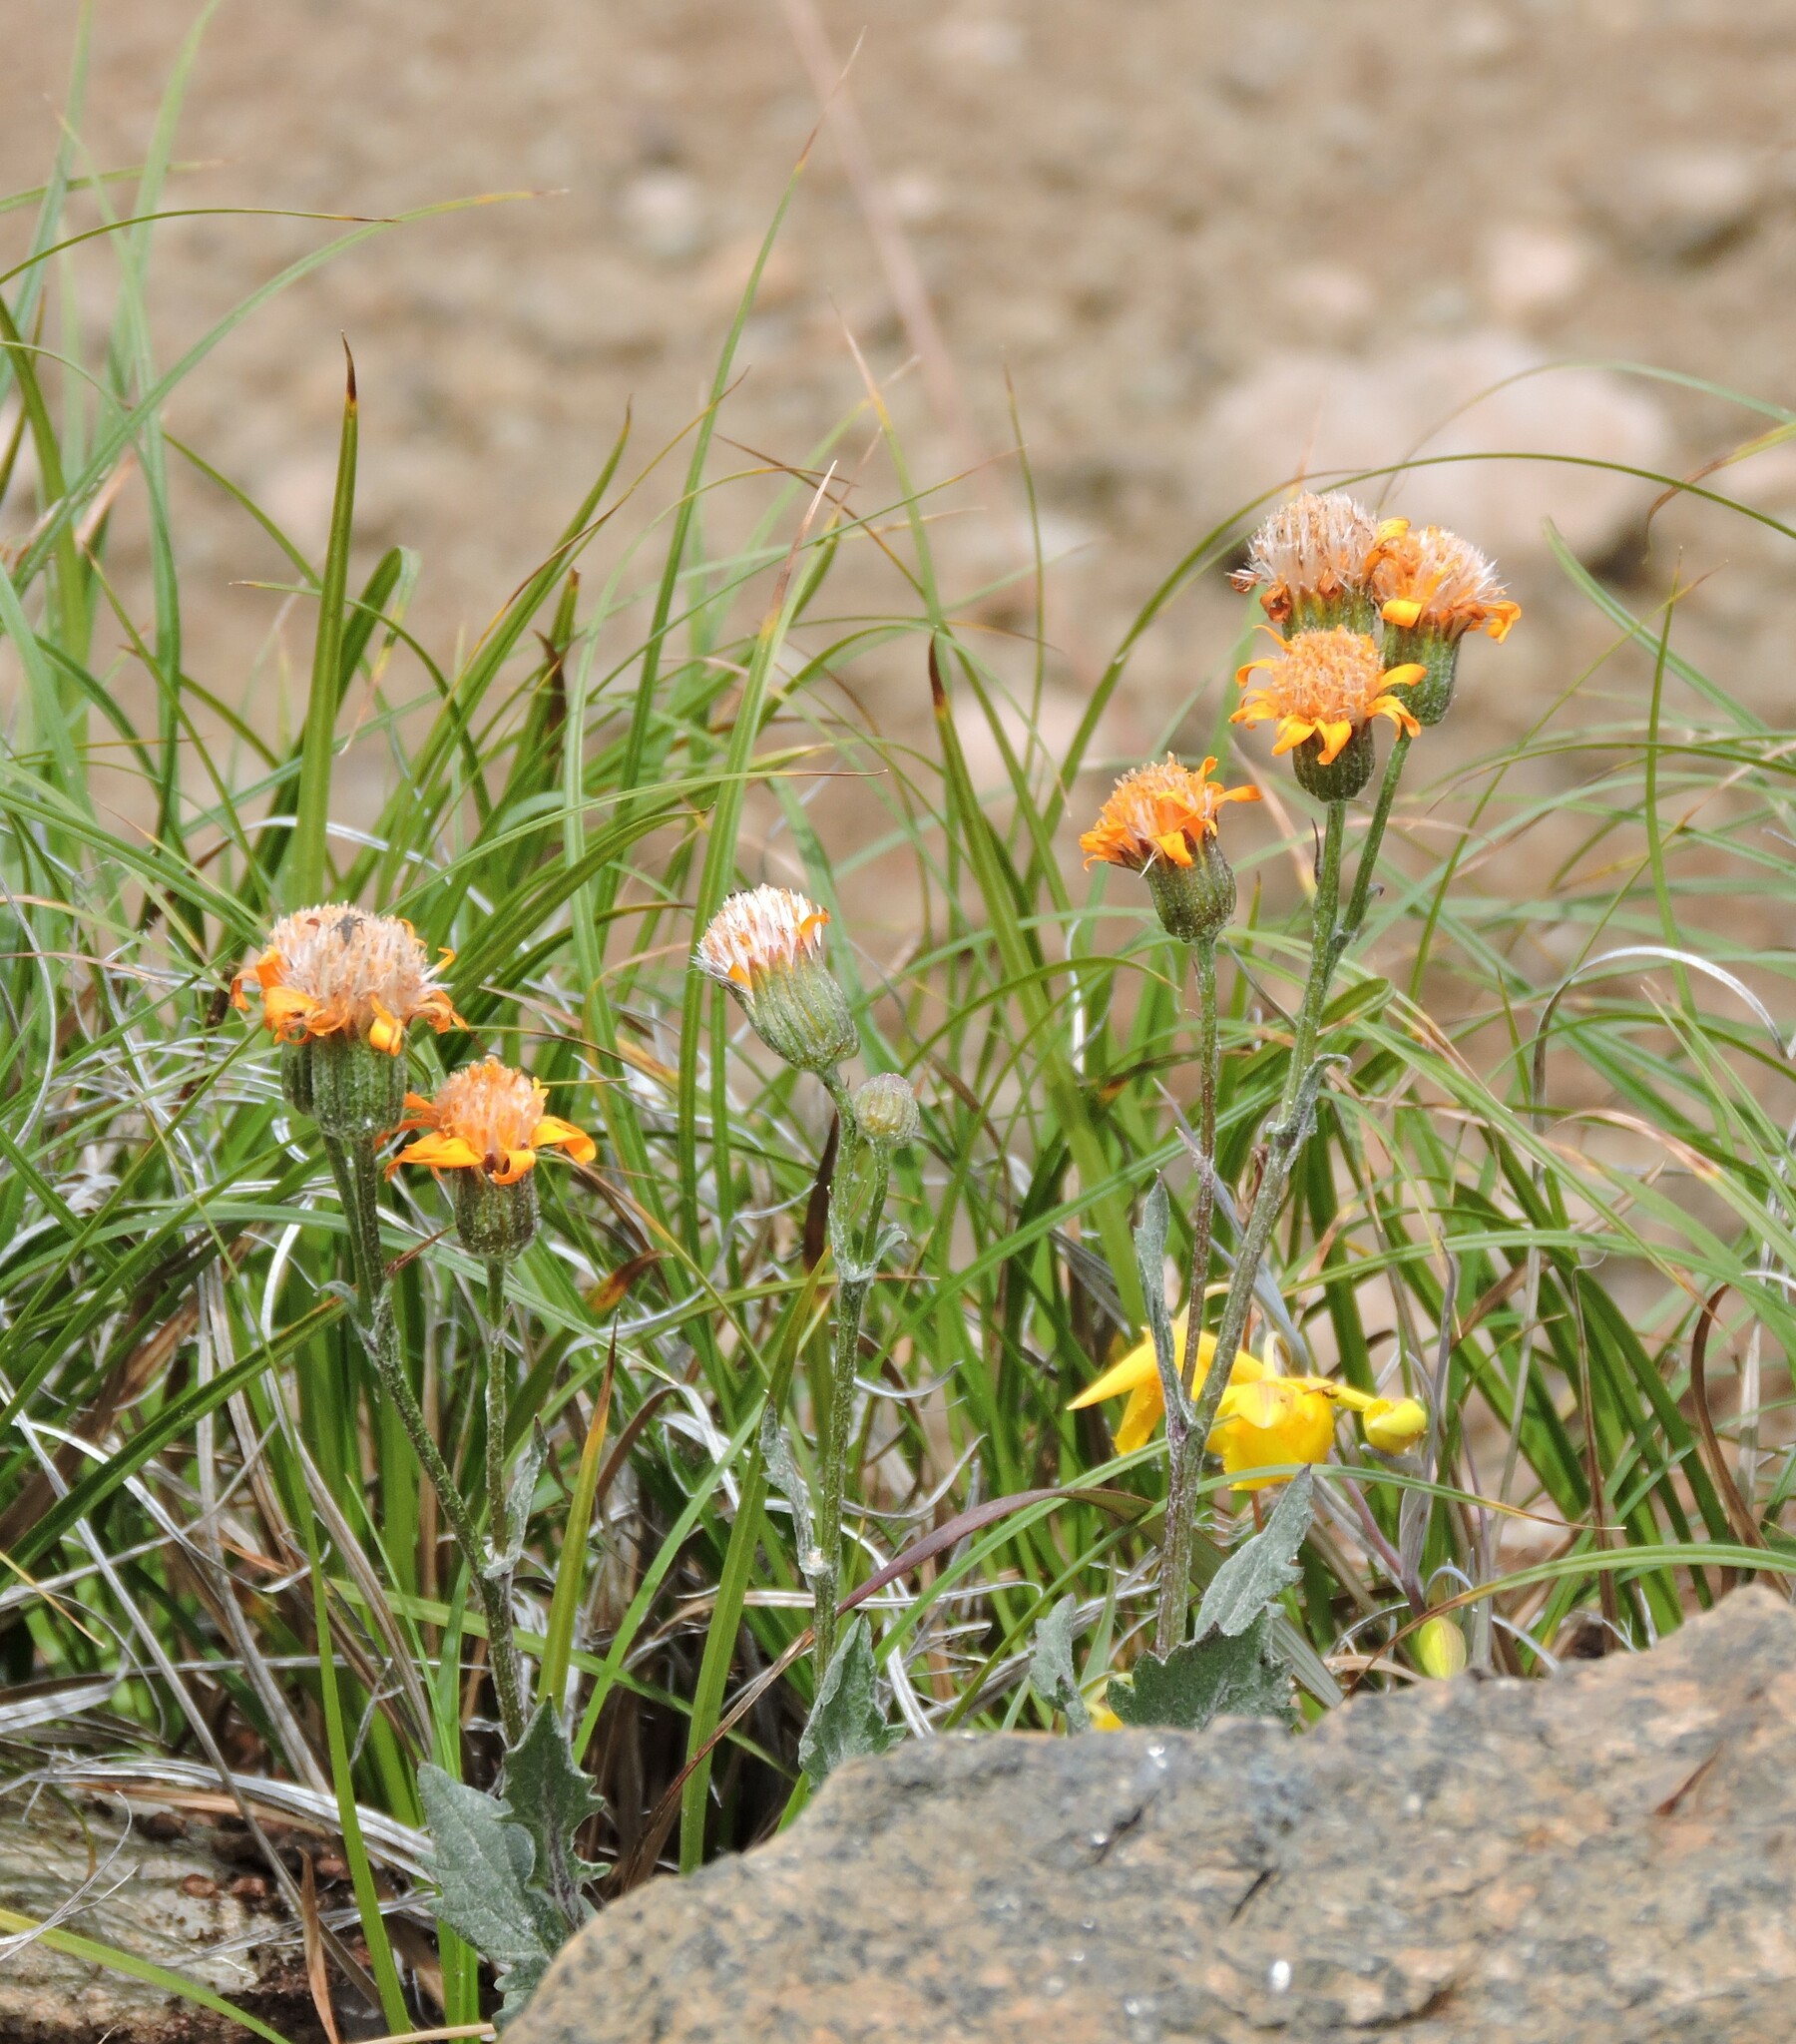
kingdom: Plantae
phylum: Tracheophyta
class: Magnoliopsida
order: Asterales
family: Asteraceae
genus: Packera
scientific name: Packera greenei
